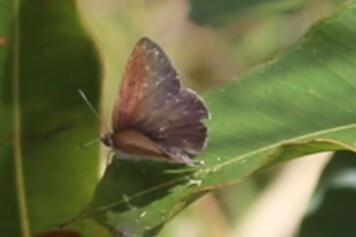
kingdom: Animalia
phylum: Arthropoda
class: Insecta
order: Lepidoptera
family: Lycaenidae
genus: Candalides
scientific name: Candalides
